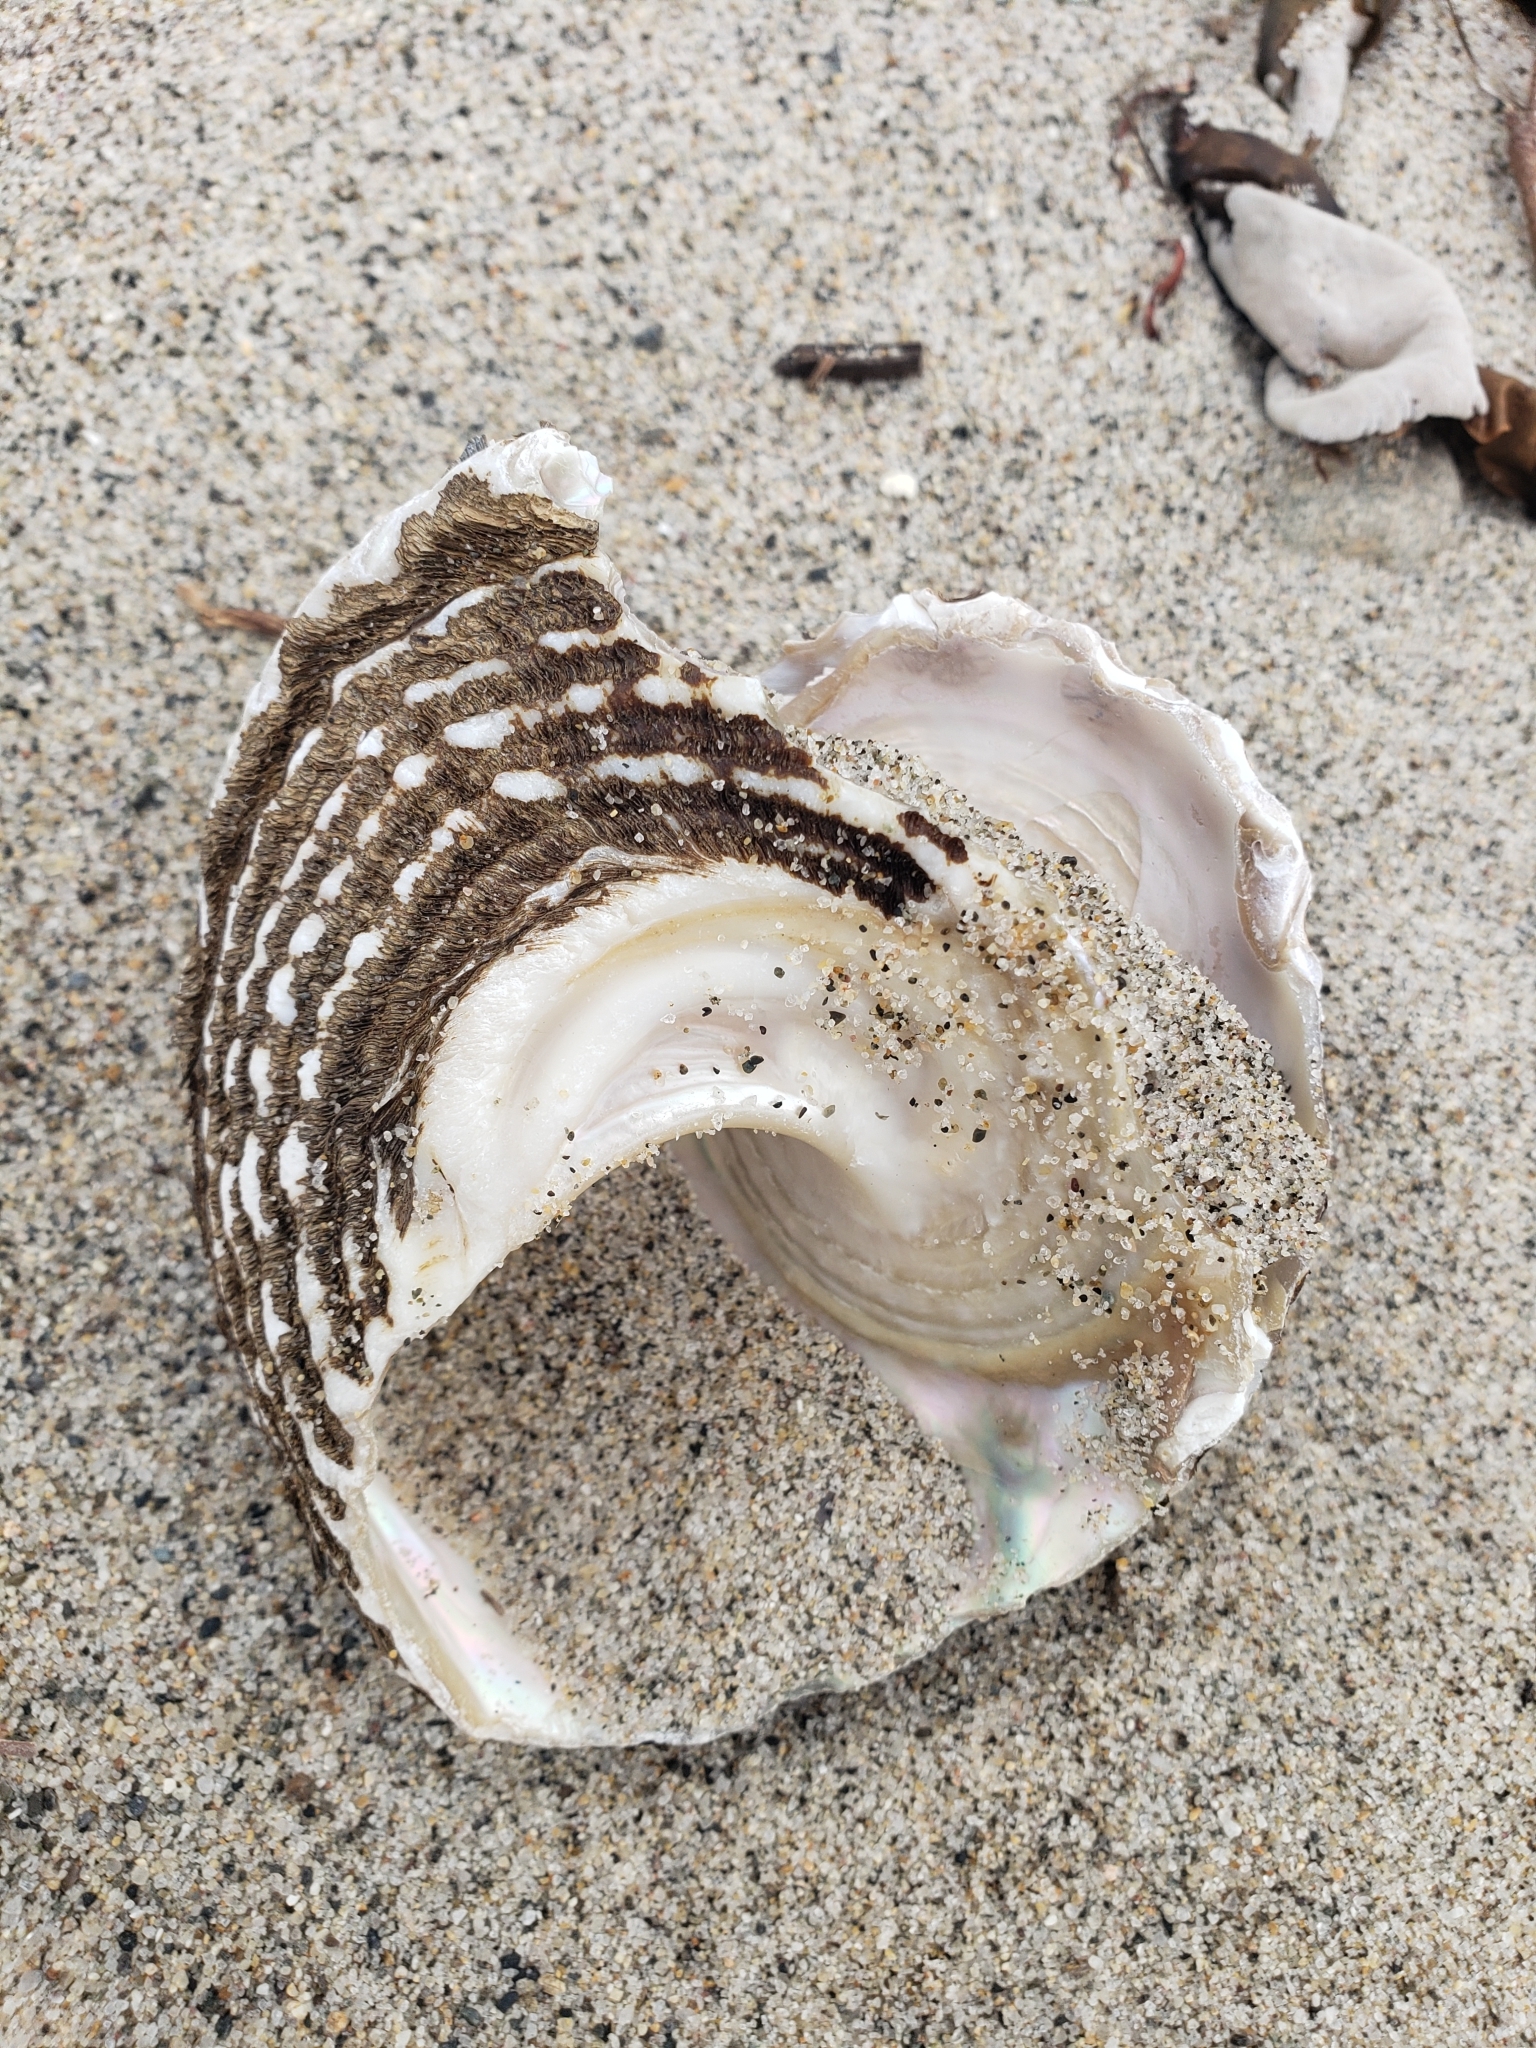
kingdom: Animalia
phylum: Mollusca
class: Gastropoda
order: Trochida
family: Turbinidae
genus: Megastraea
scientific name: Megastraea undosa
